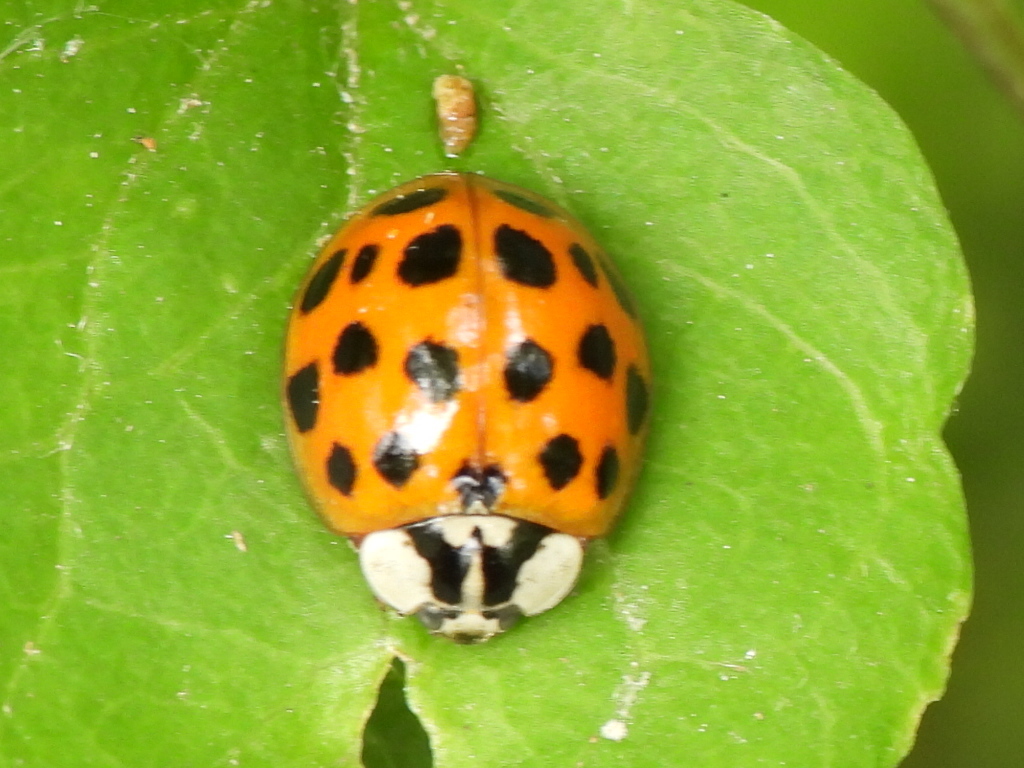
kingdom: Animalia
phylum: Arthropoda
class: Insecta
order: Coleoptera
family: Coccinellidae
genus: Harmonia
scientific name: Harmonia axyridis
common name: Harlequin ladybird
